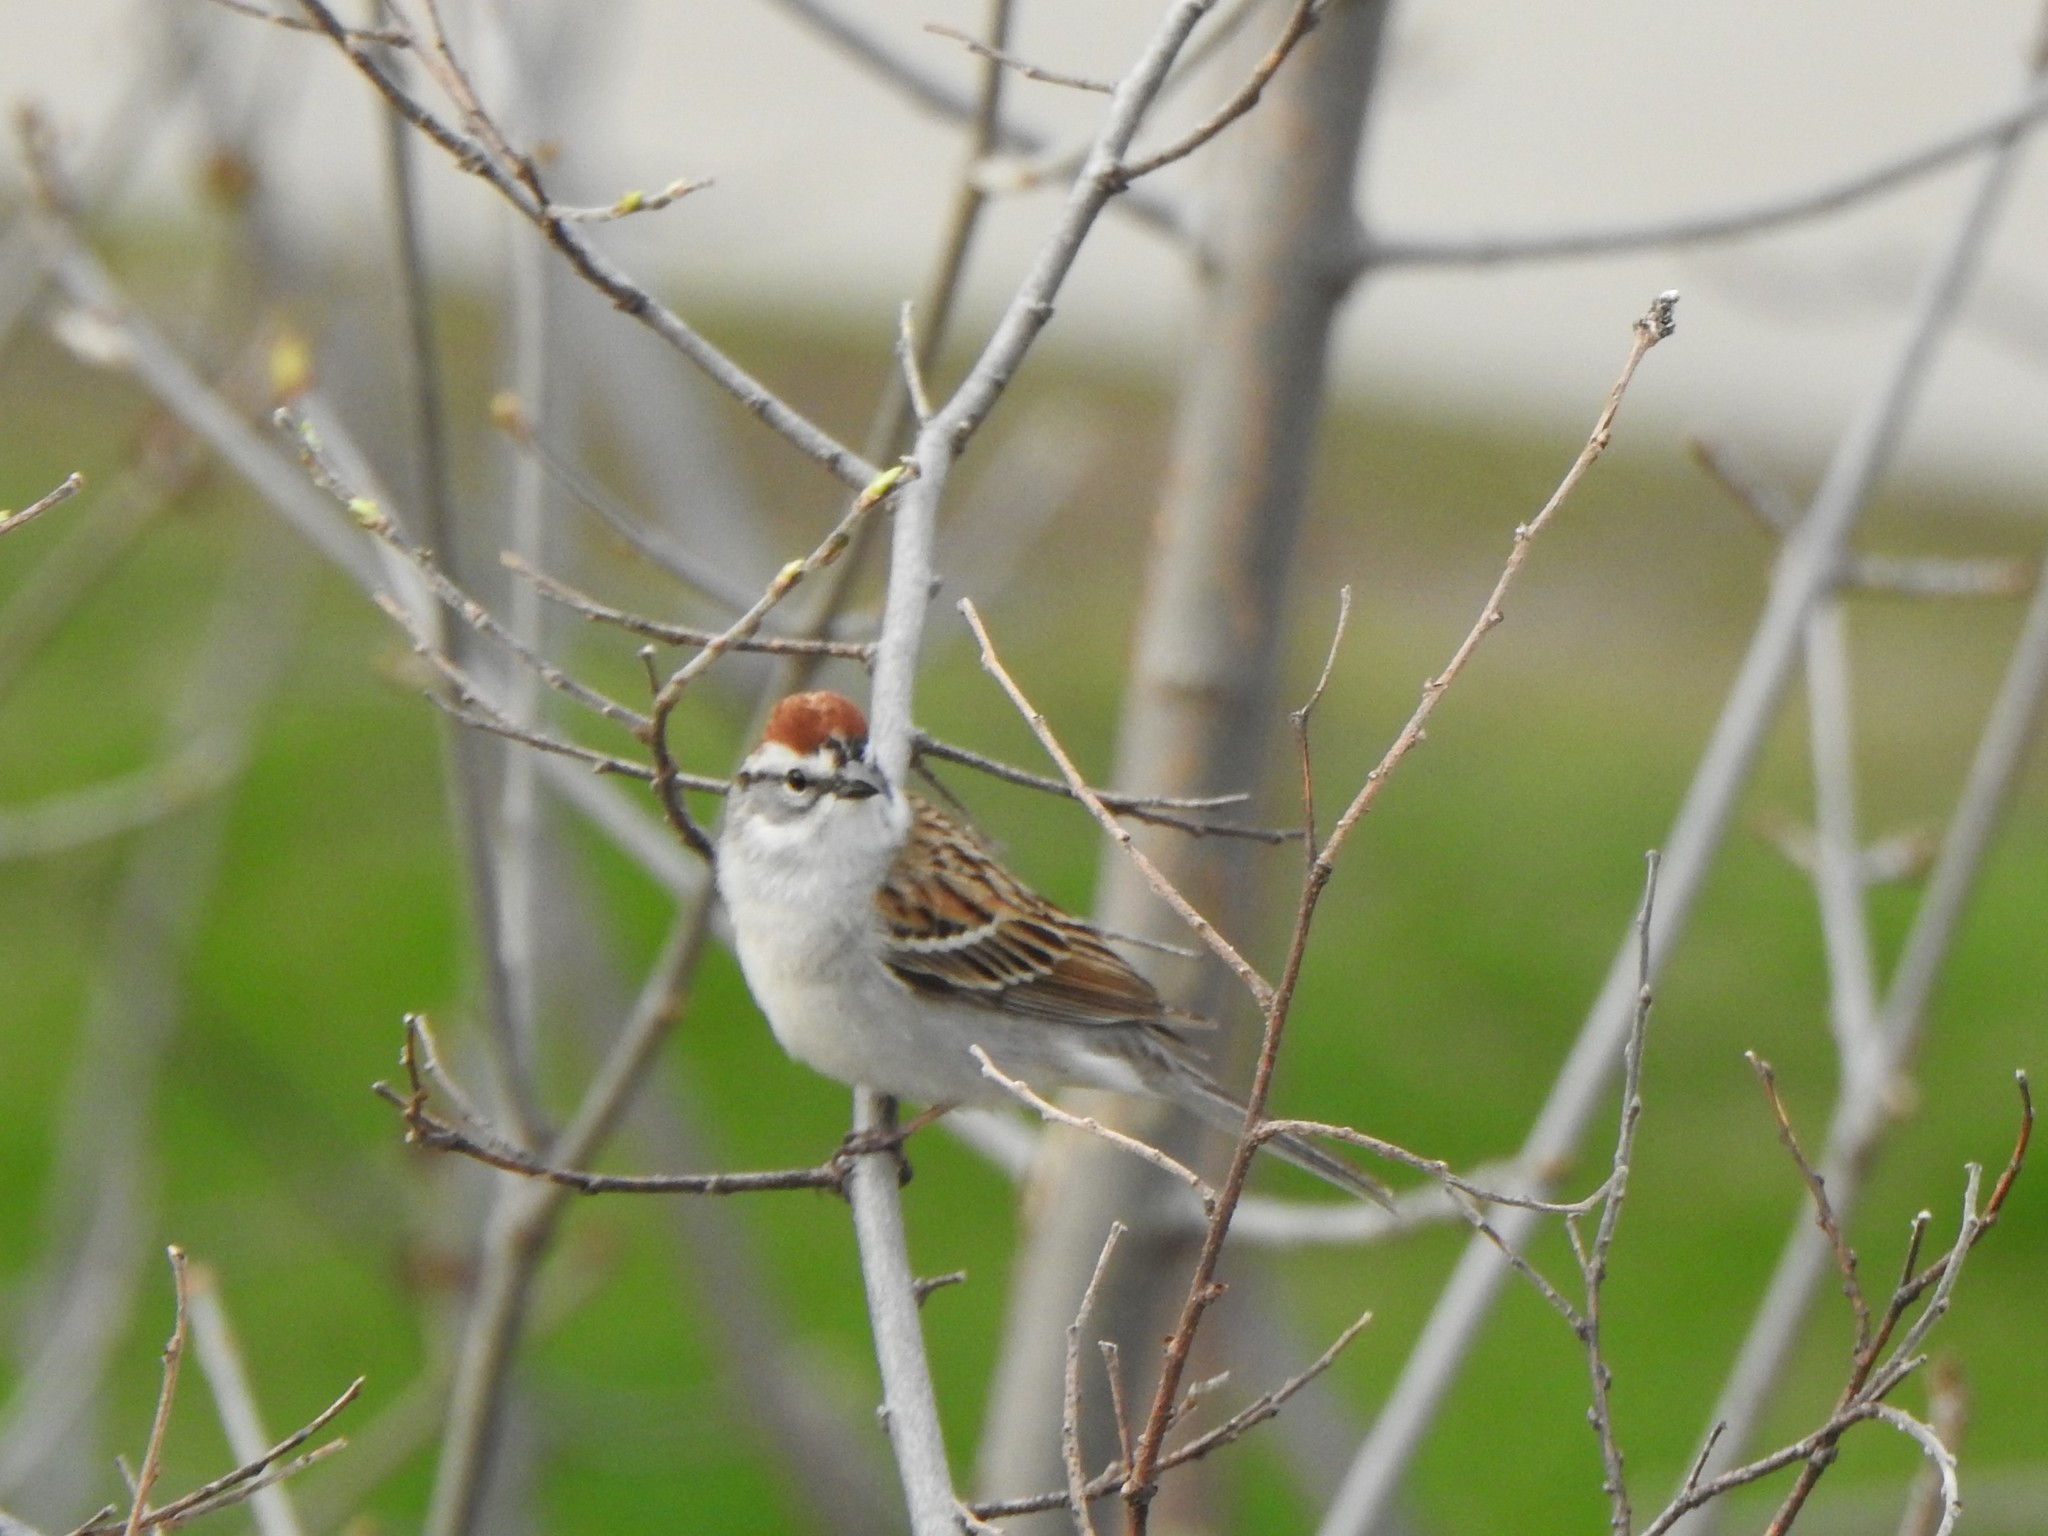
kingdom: Animalia
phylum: Chordata
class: Aves
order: Passeriformes
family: Passerellidae
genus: Spizella
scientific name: Spizella passerina
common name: Chipping sparrow
